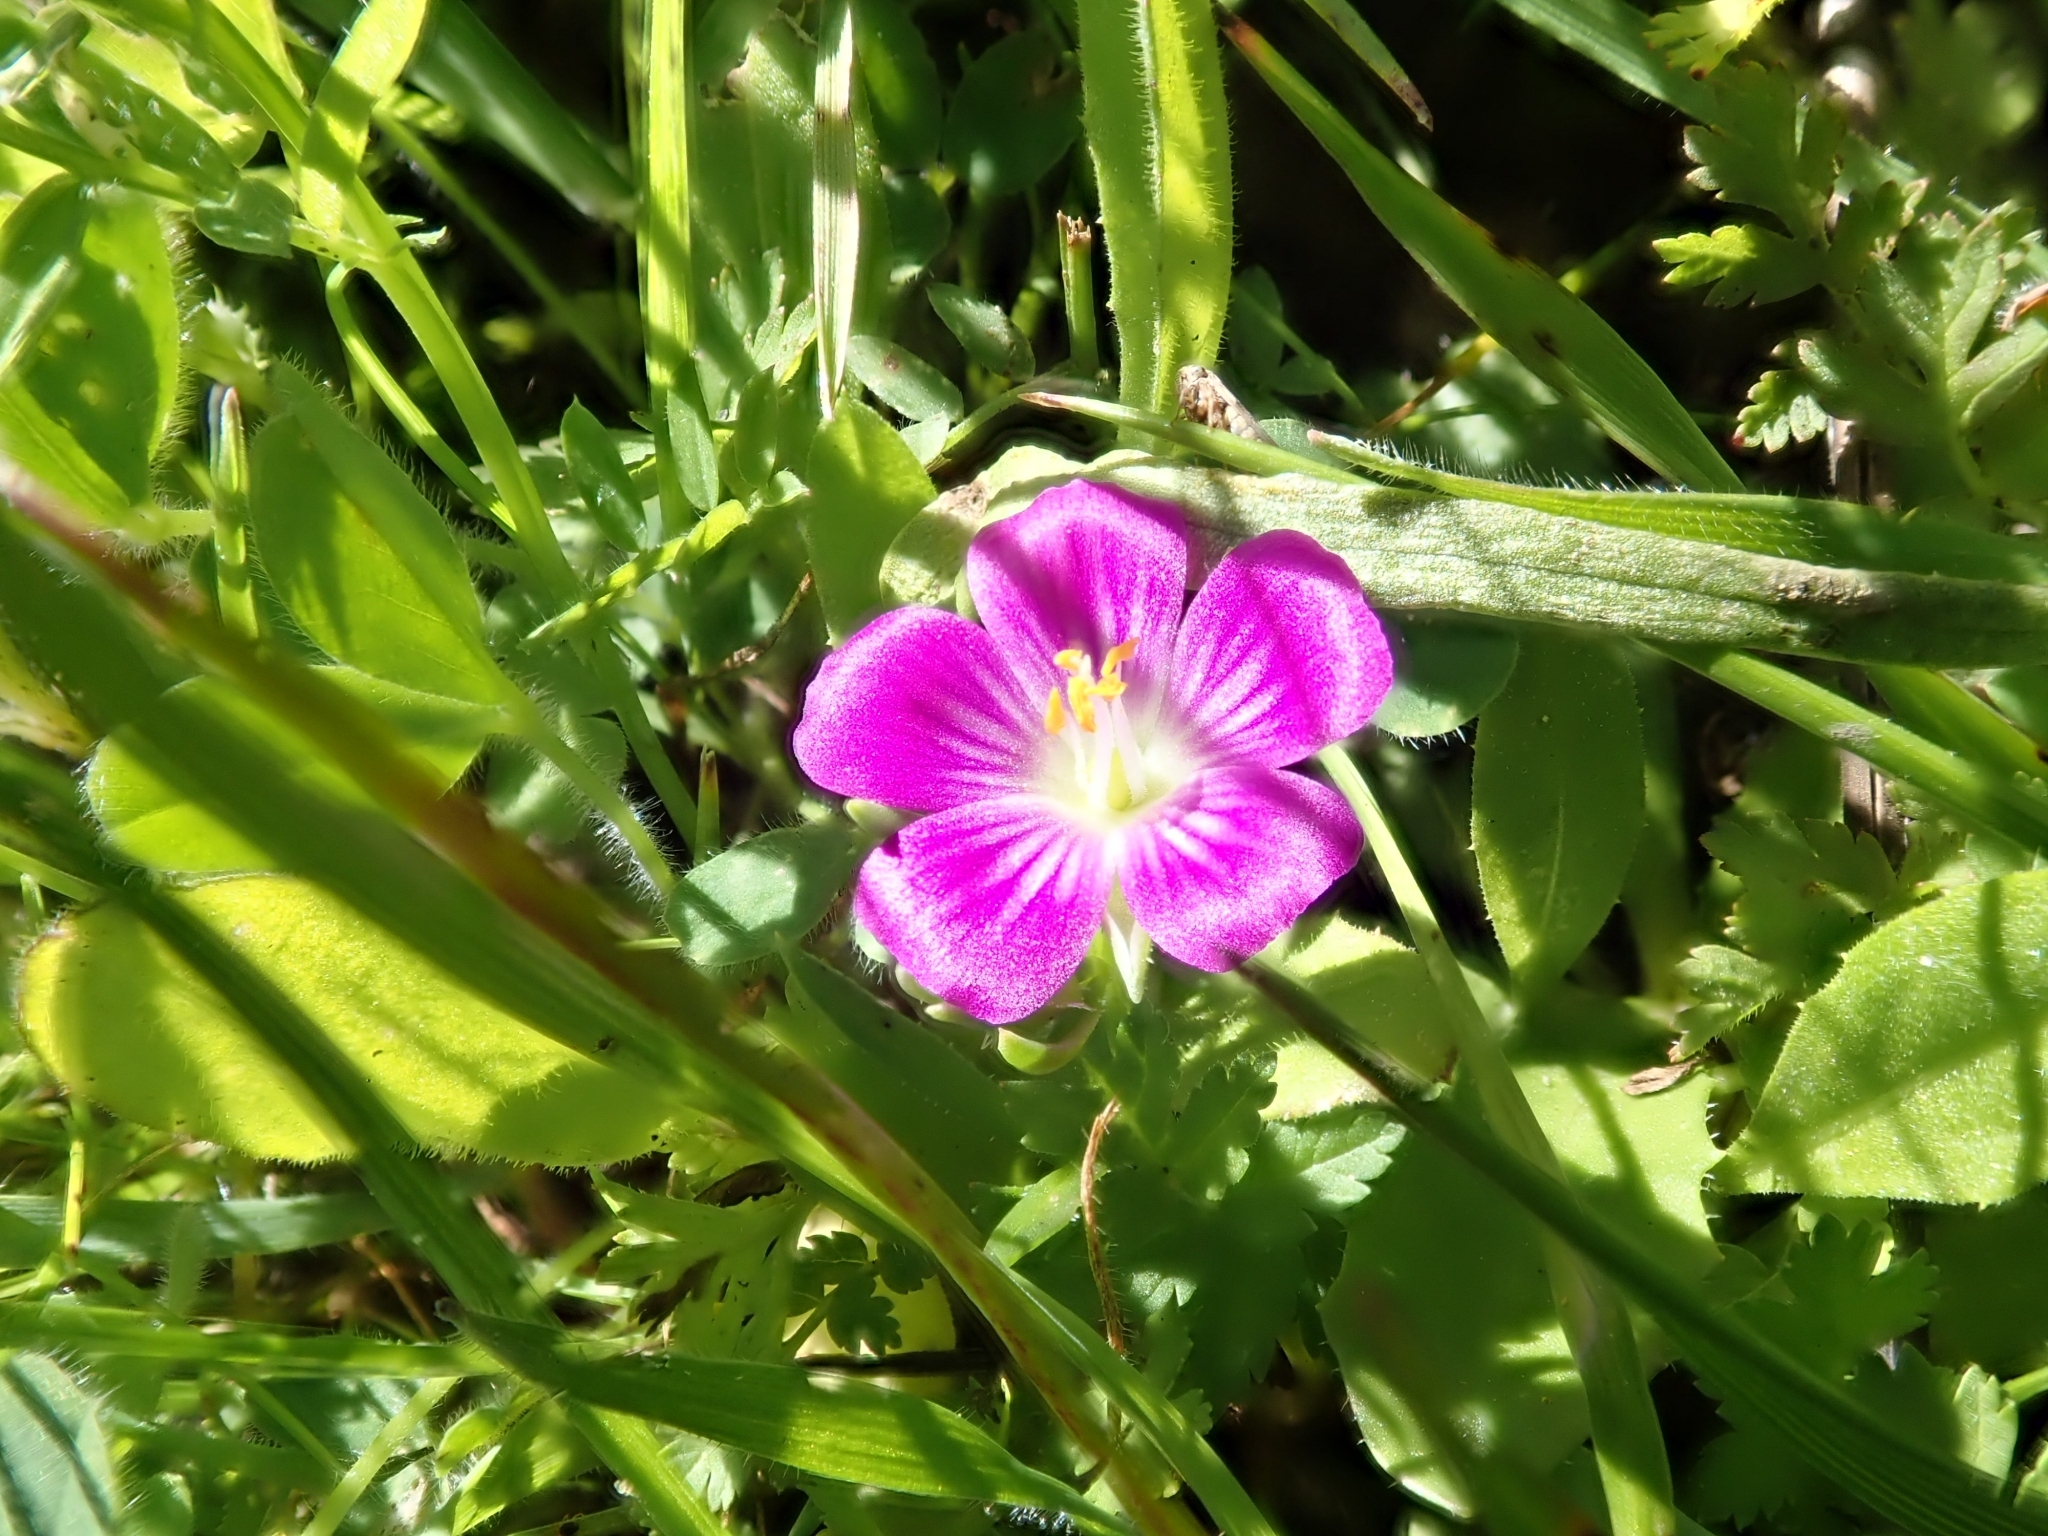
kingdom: Plantae
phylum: Tracheophyta
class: Magnoliopsida
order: Caryophyllales
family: Montiaceae
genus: Calandrinia
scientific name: Calandrinia menziesii
